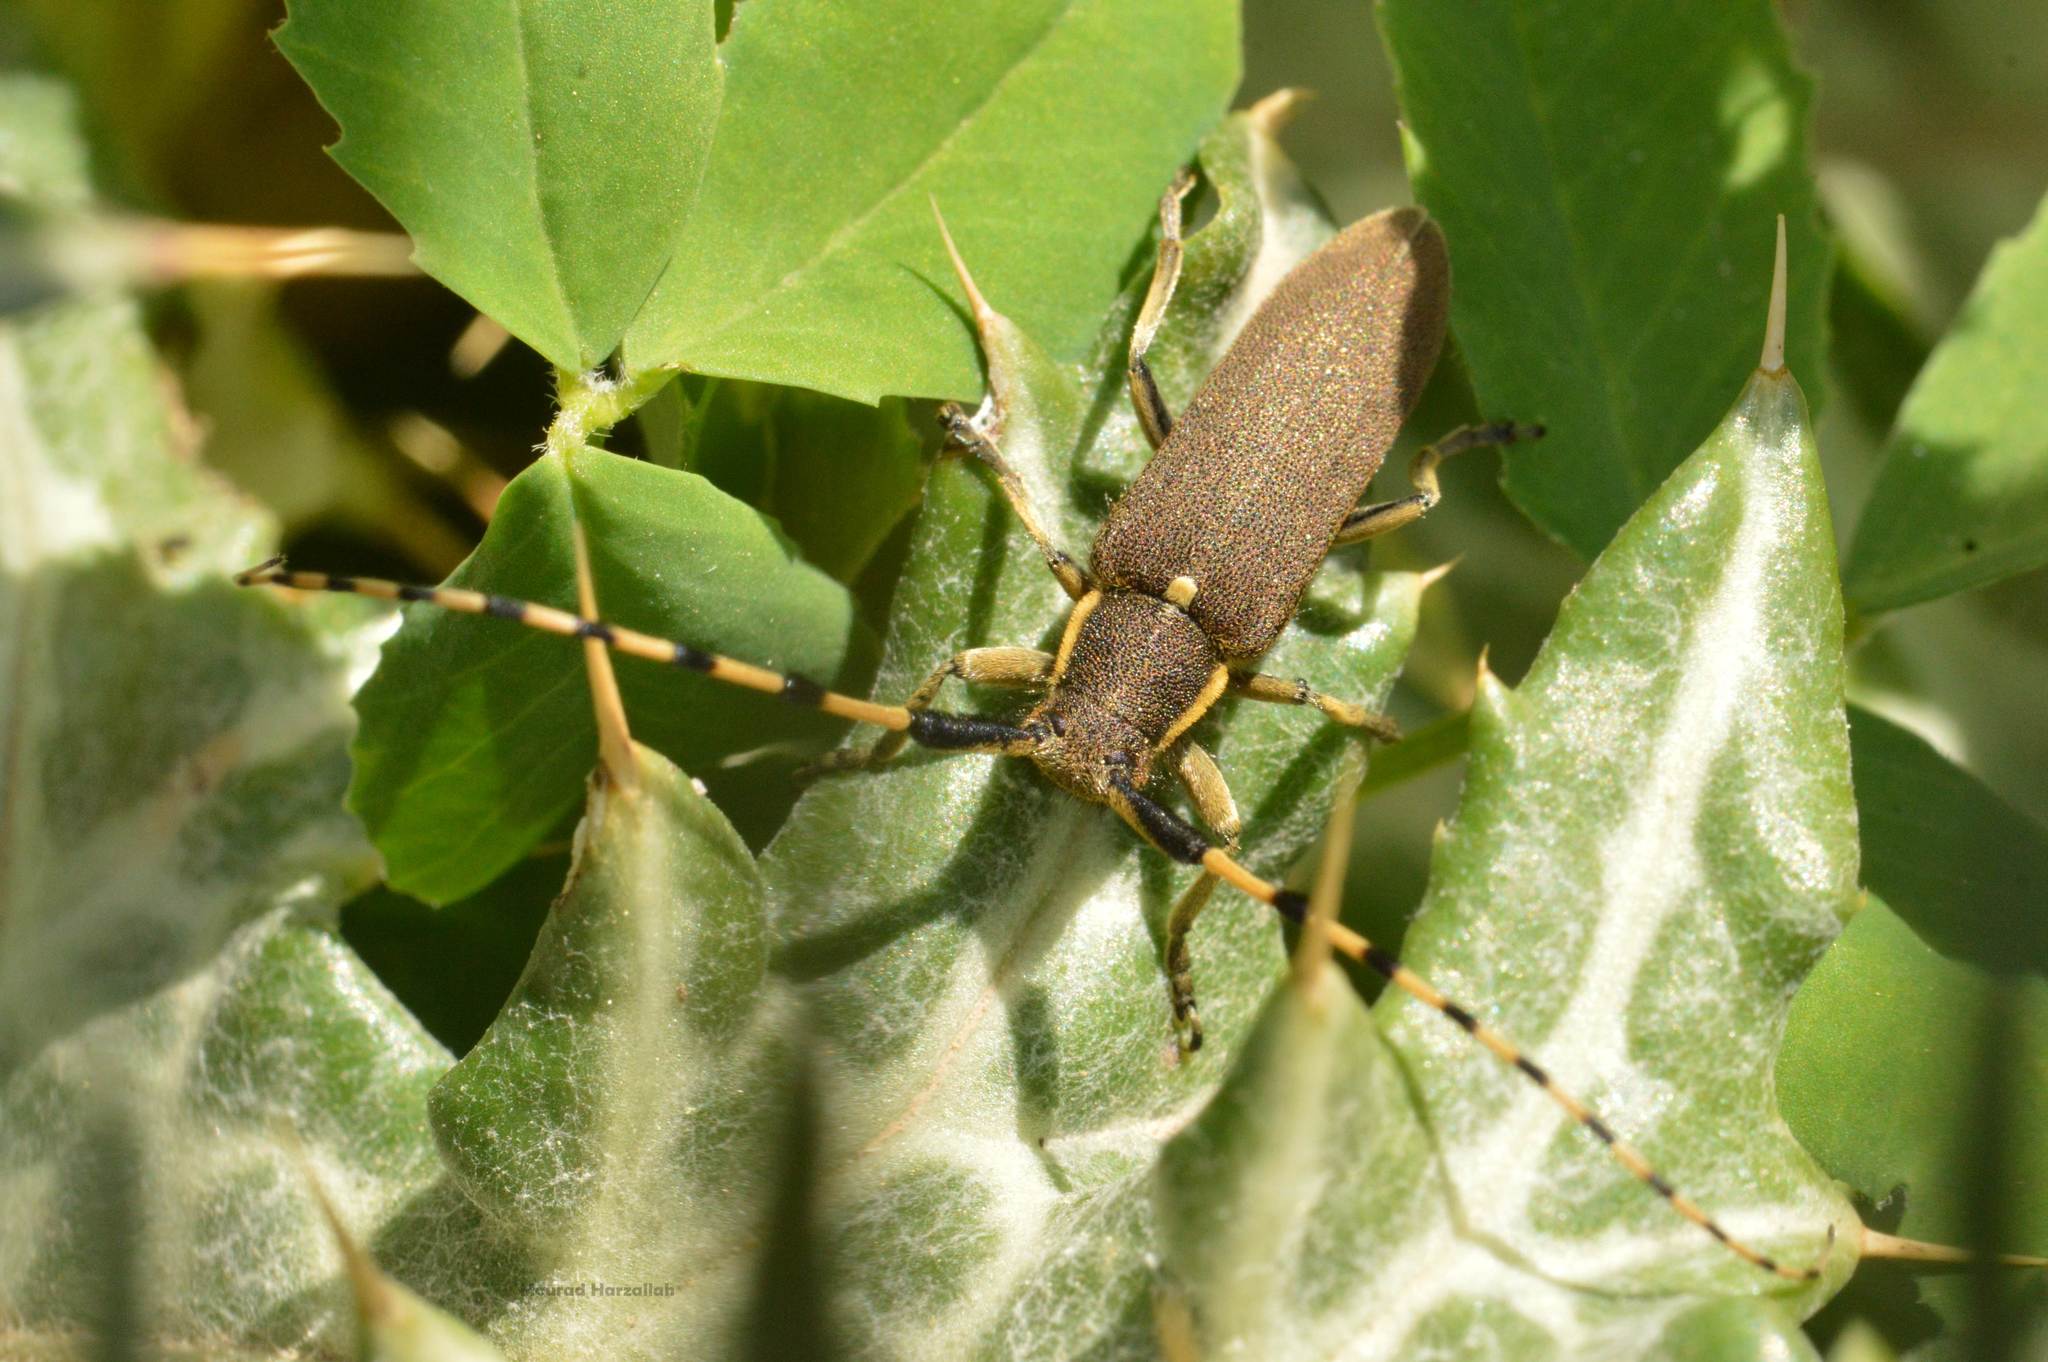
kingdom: Animalia
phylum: Arthropoda
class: Insecta
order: Coleoptera
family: Cerambycidae
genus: Agapanthia
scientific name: Agapanthia annularis
